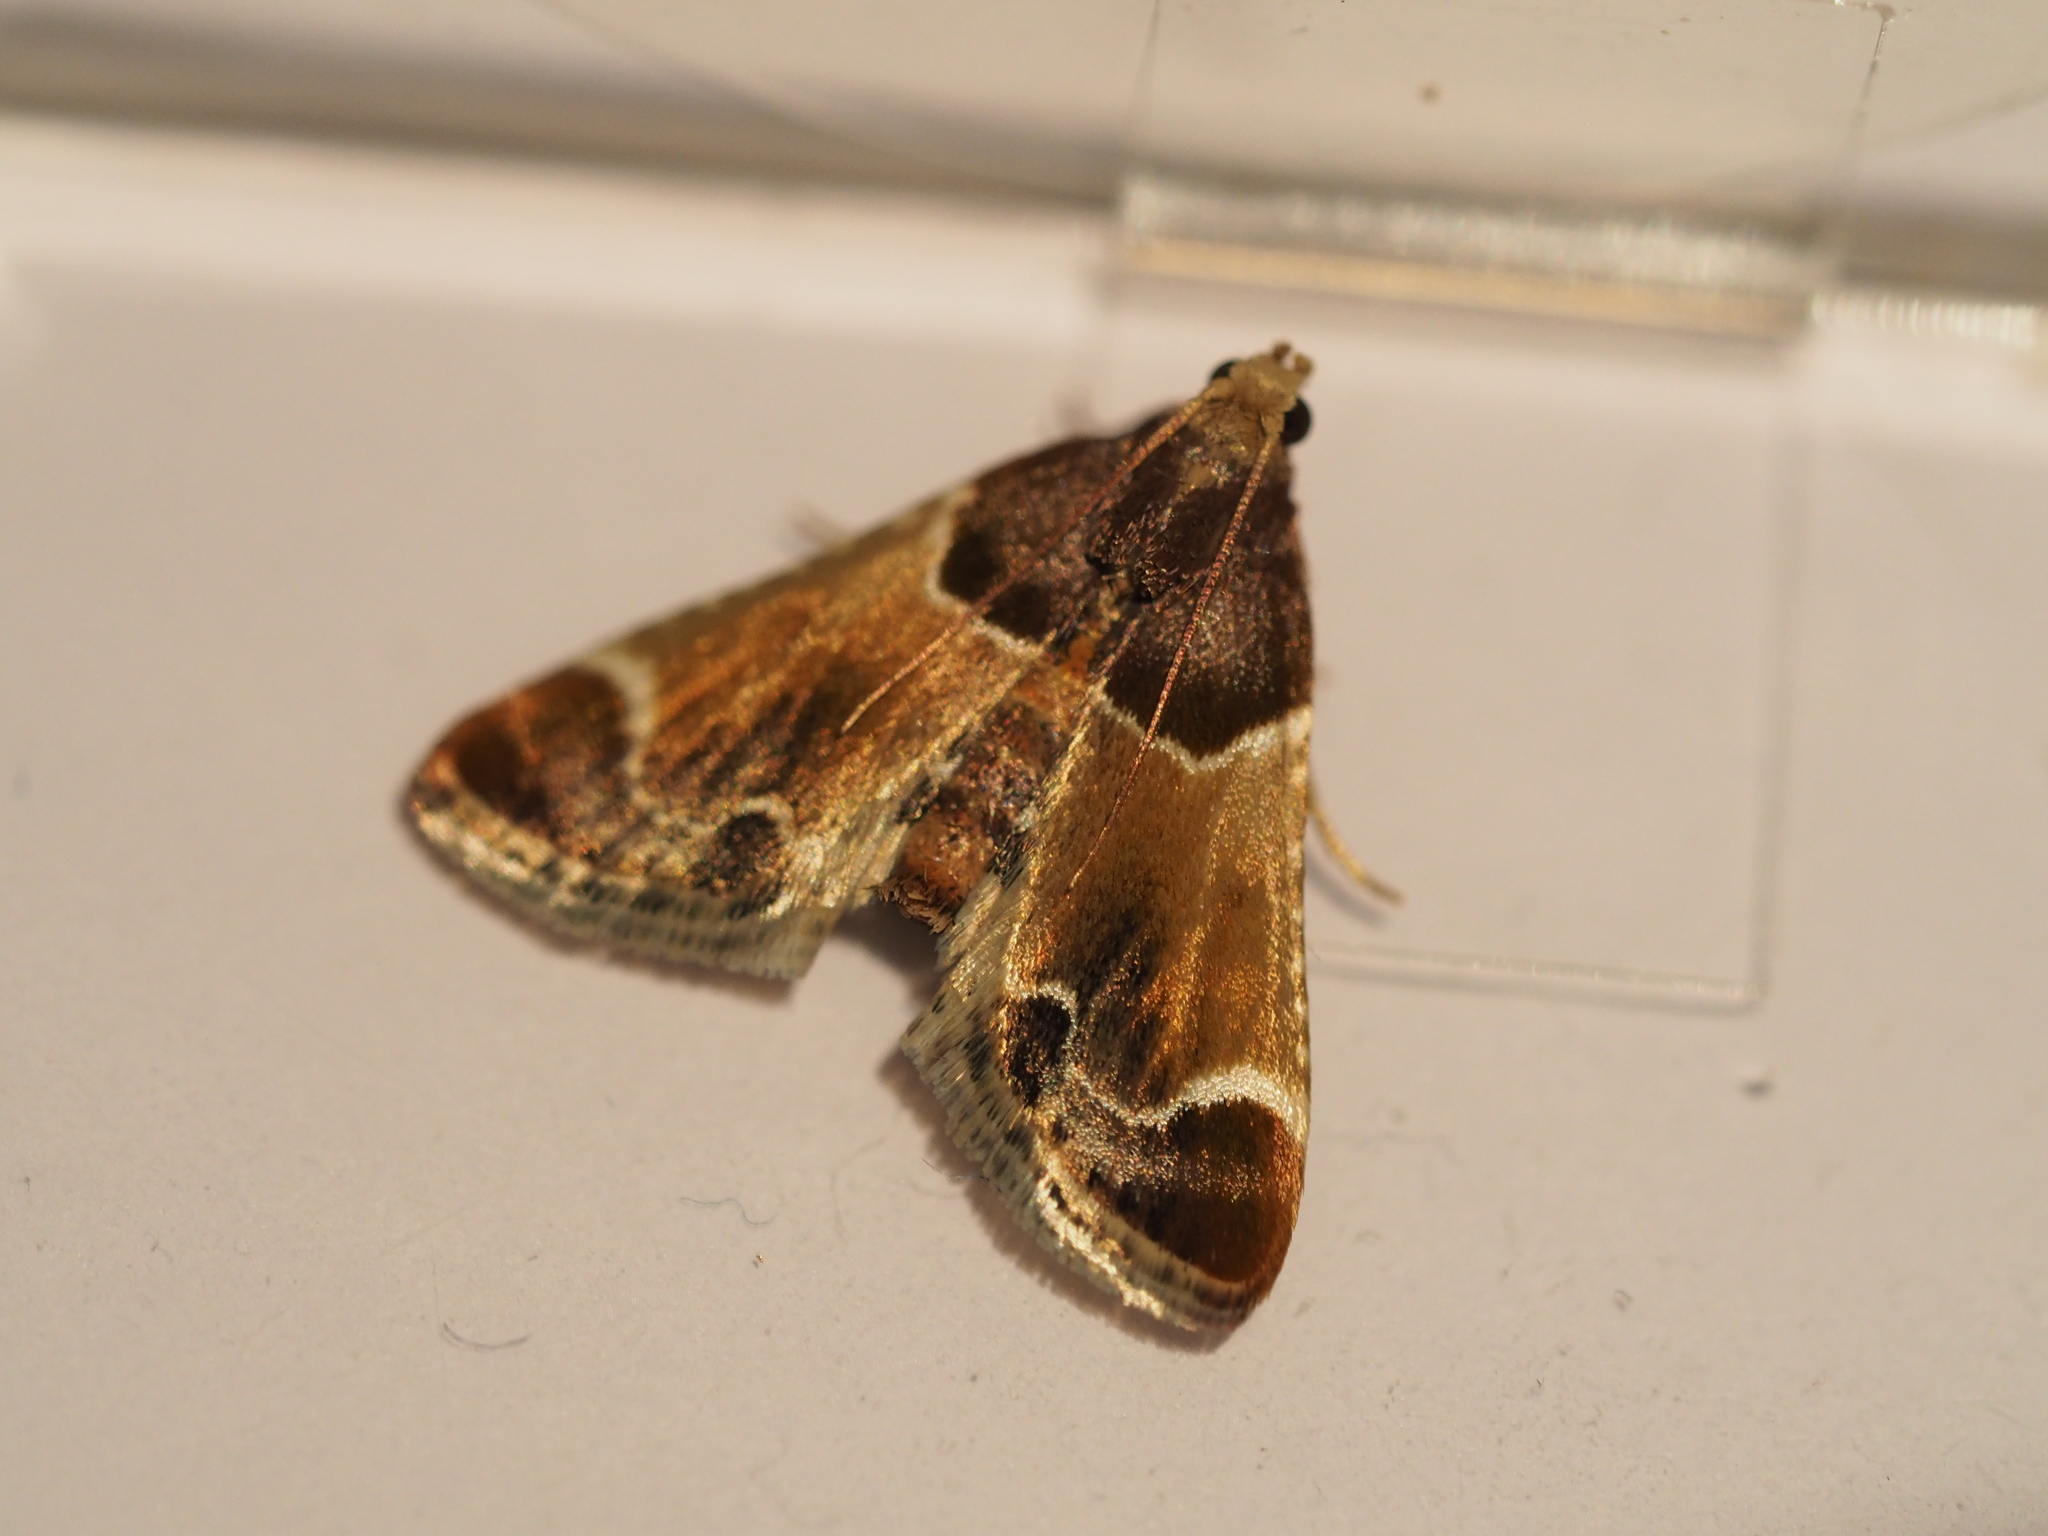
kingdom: Animalia
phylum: Arthropoda
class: Insecta
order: Lepidoptera
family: Pyralidae
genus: Pyralis
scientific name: Pyralis farinalis
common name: Meal moth
